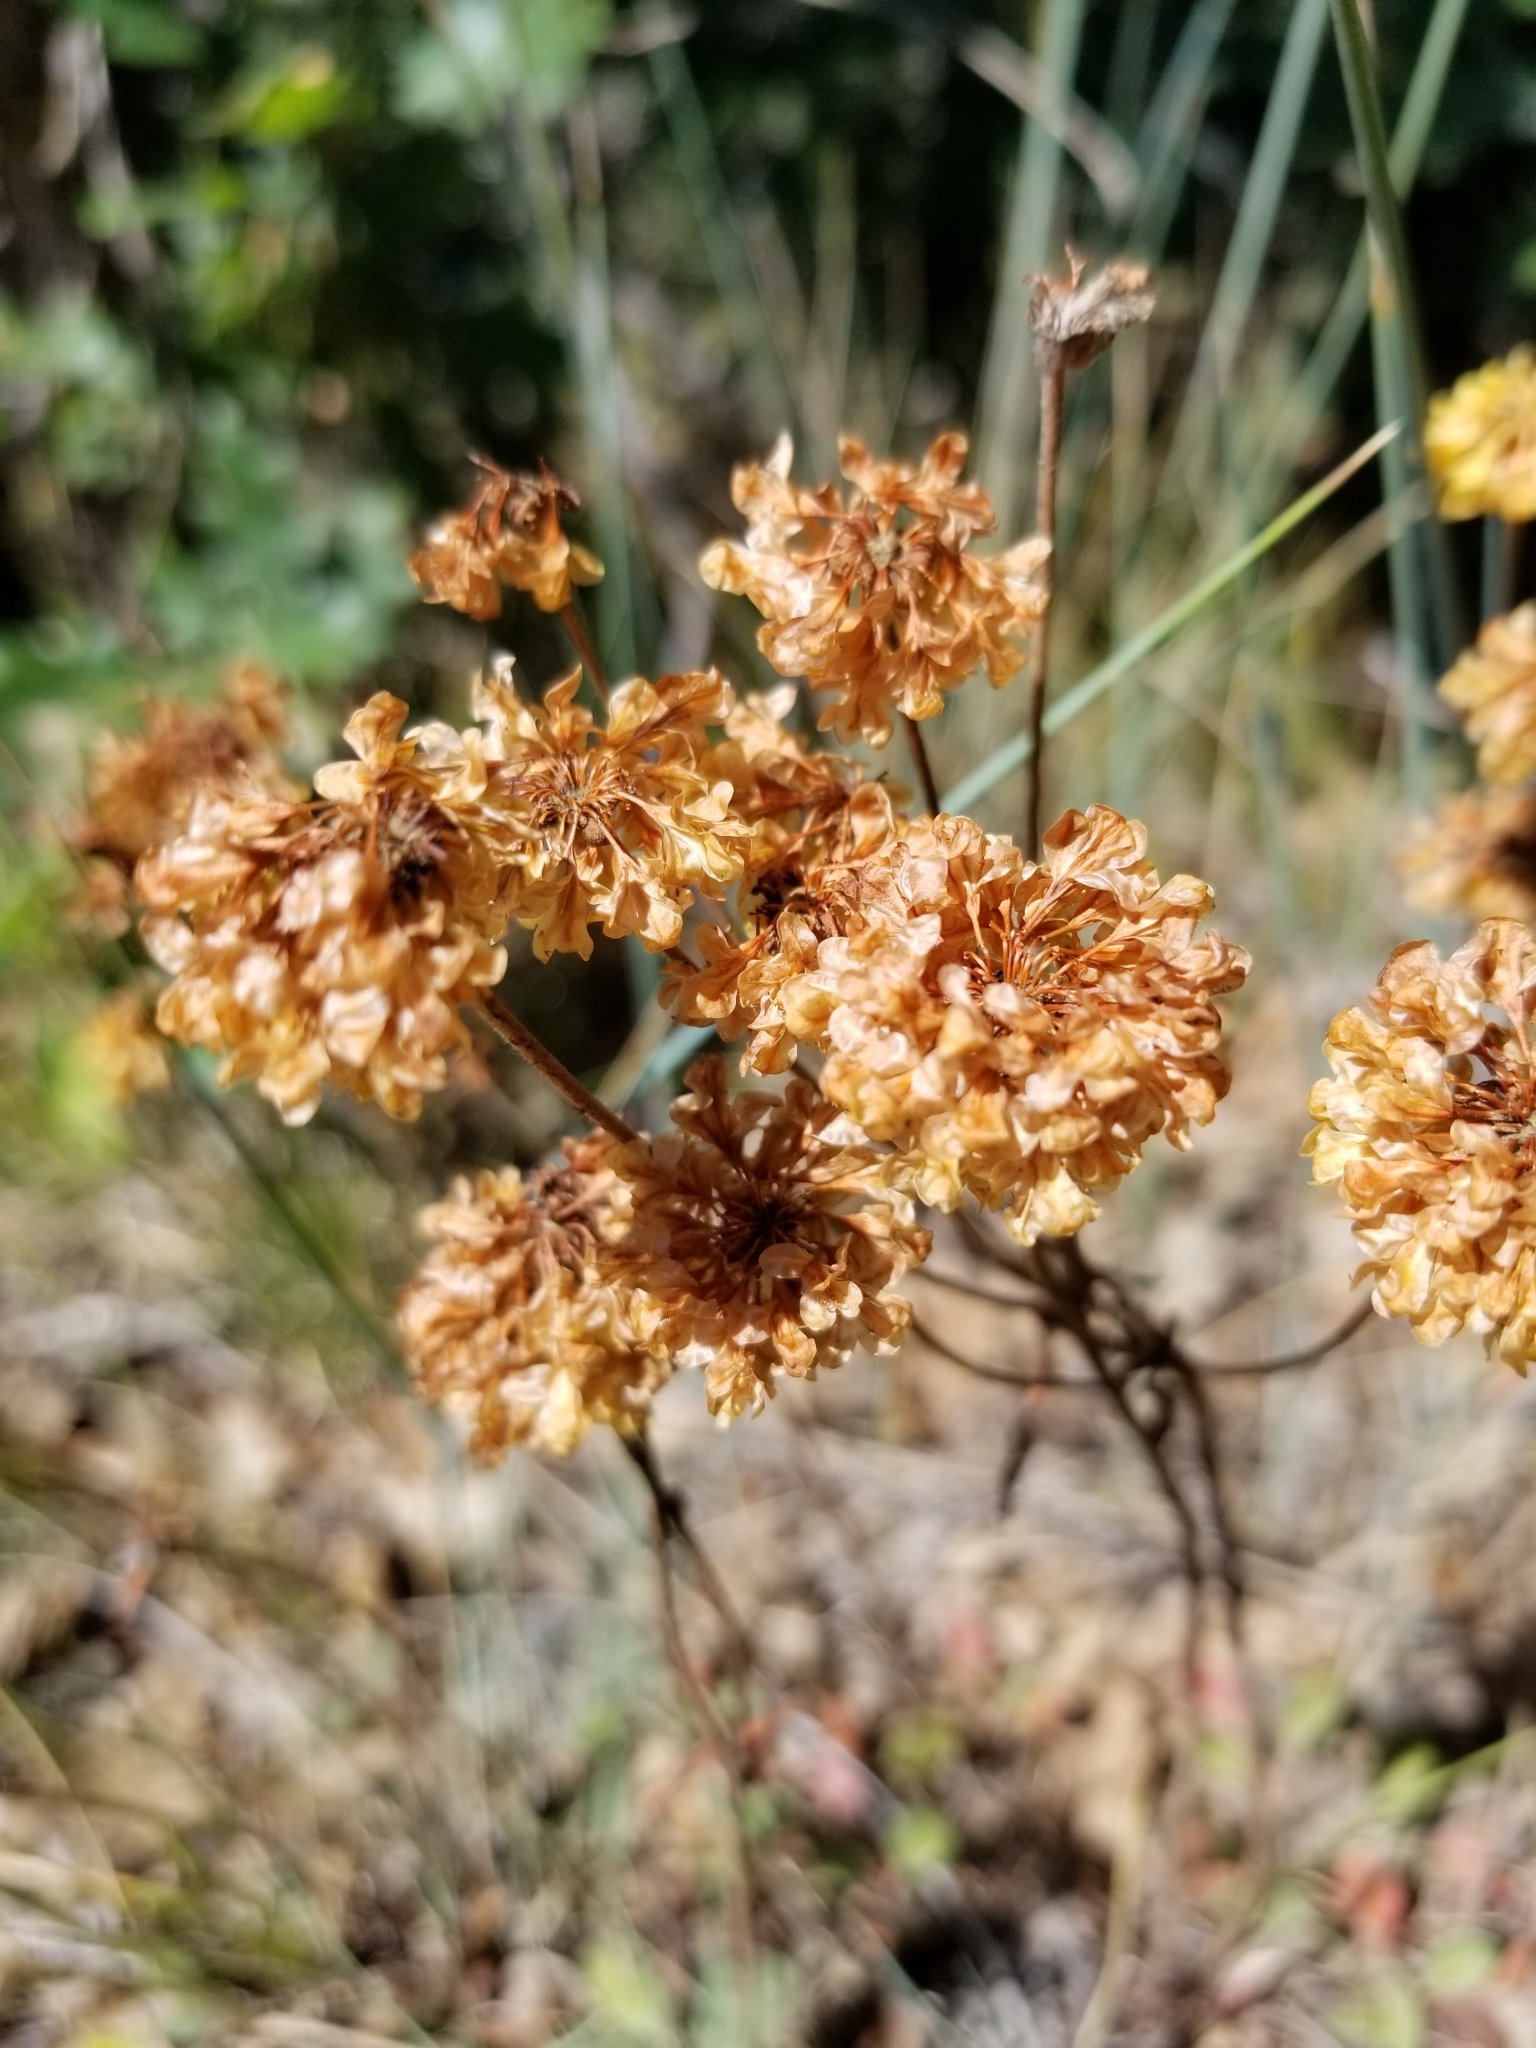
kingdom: Plantae
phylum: Tracheophyta
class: Magnoliopsida
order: Caryophyllales
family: Polygonaceae
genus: Eriogonum
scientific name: Eriogonum umbellatum
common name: Sulfur-buckwheat
